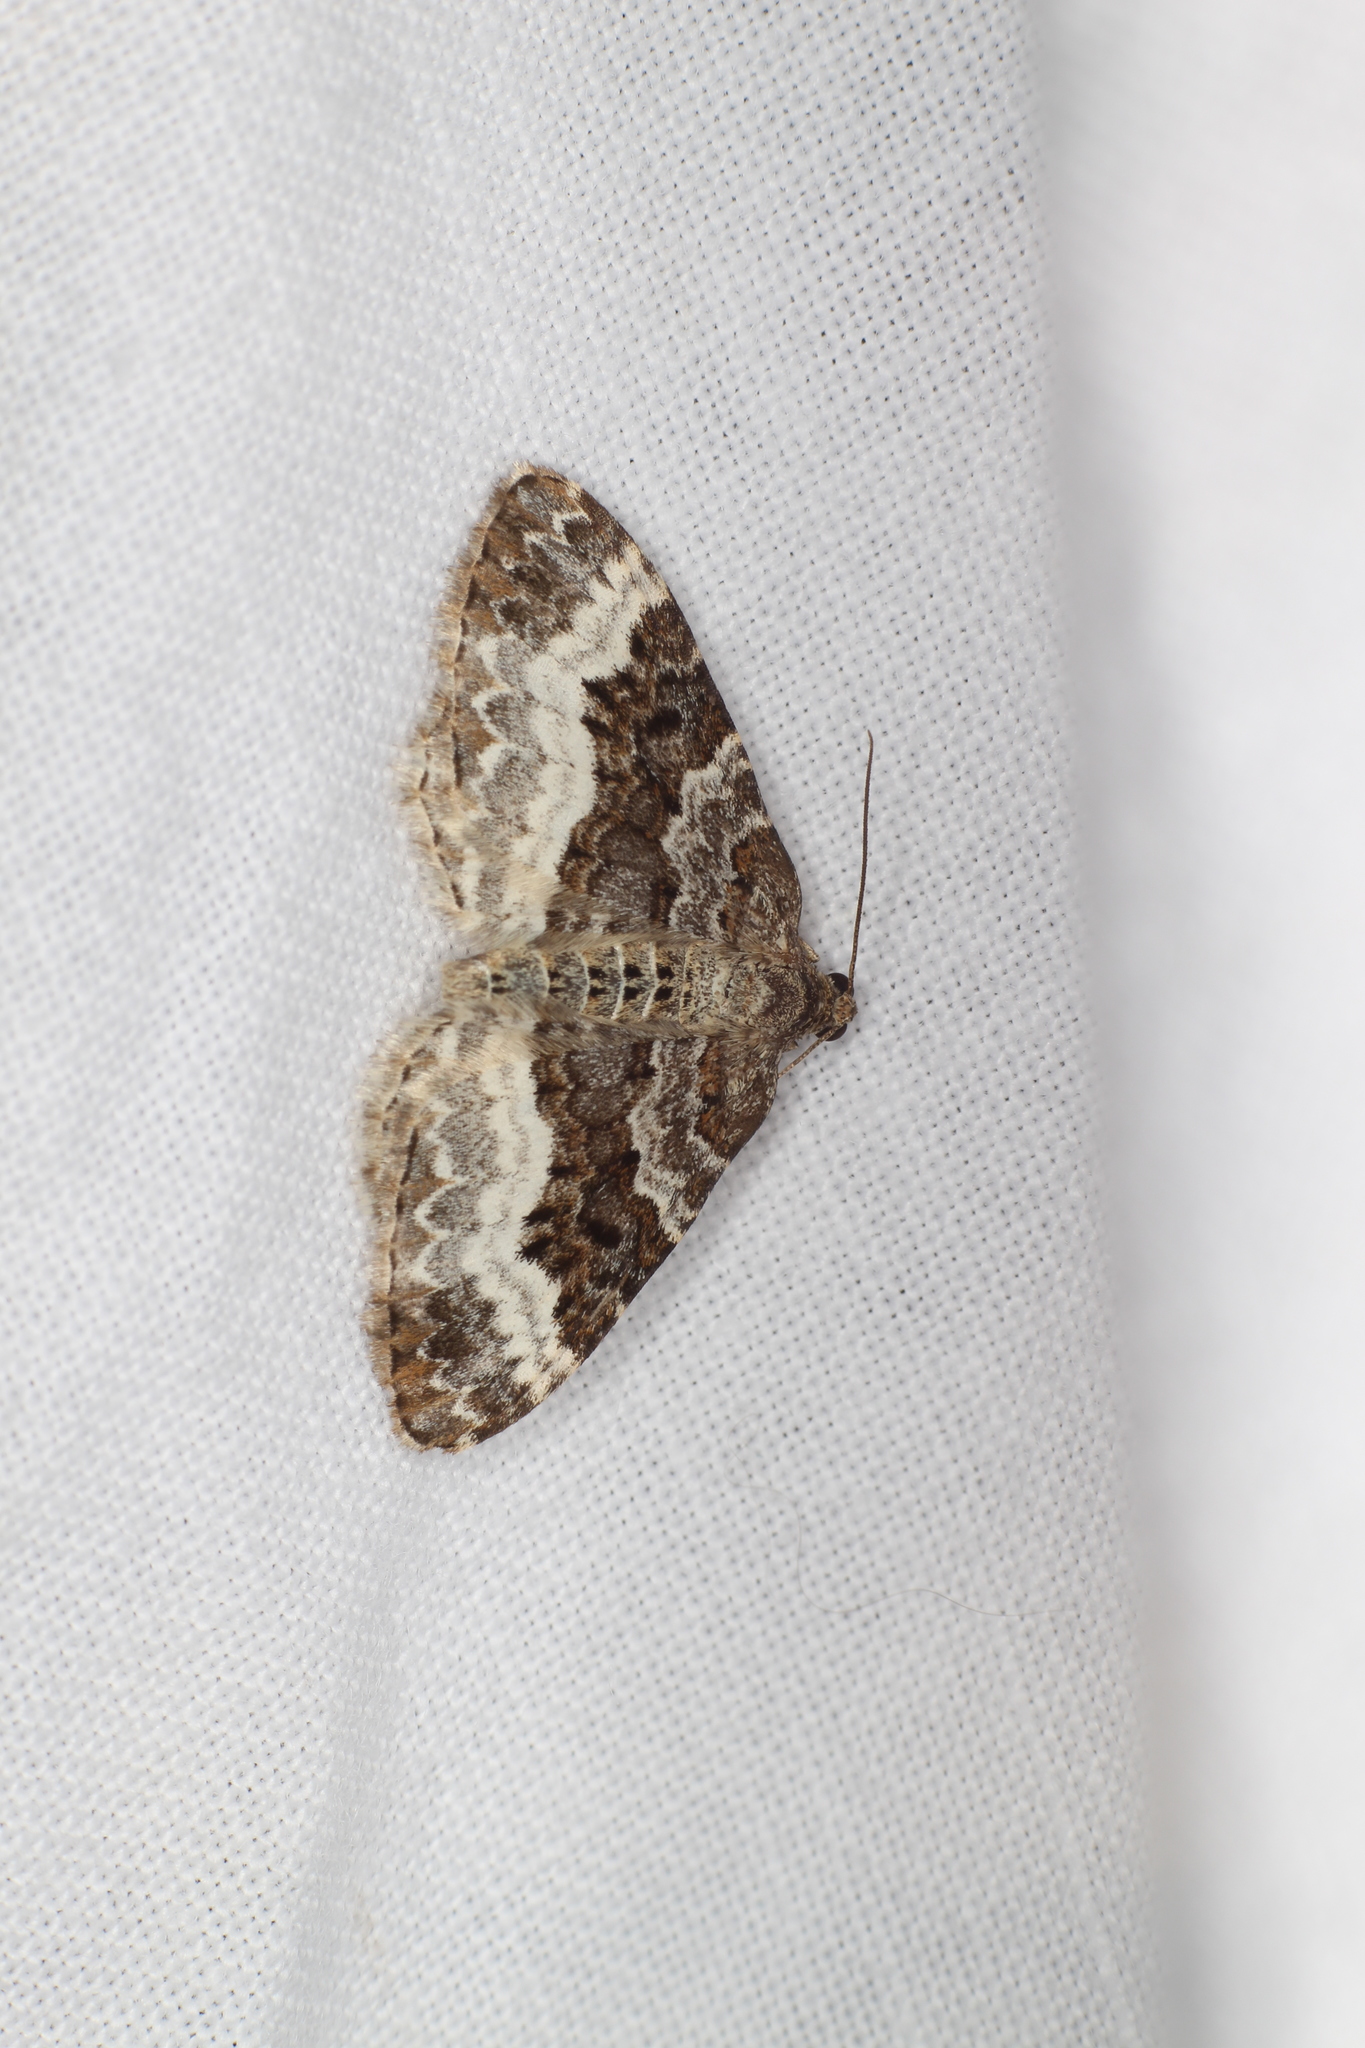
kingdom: Animalia
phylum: Arthropoda
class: Insecta
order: Lepidoptera
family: Geometridae
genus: Epirrhoe
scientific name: Epirrhoe alternata
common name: Common carpet
